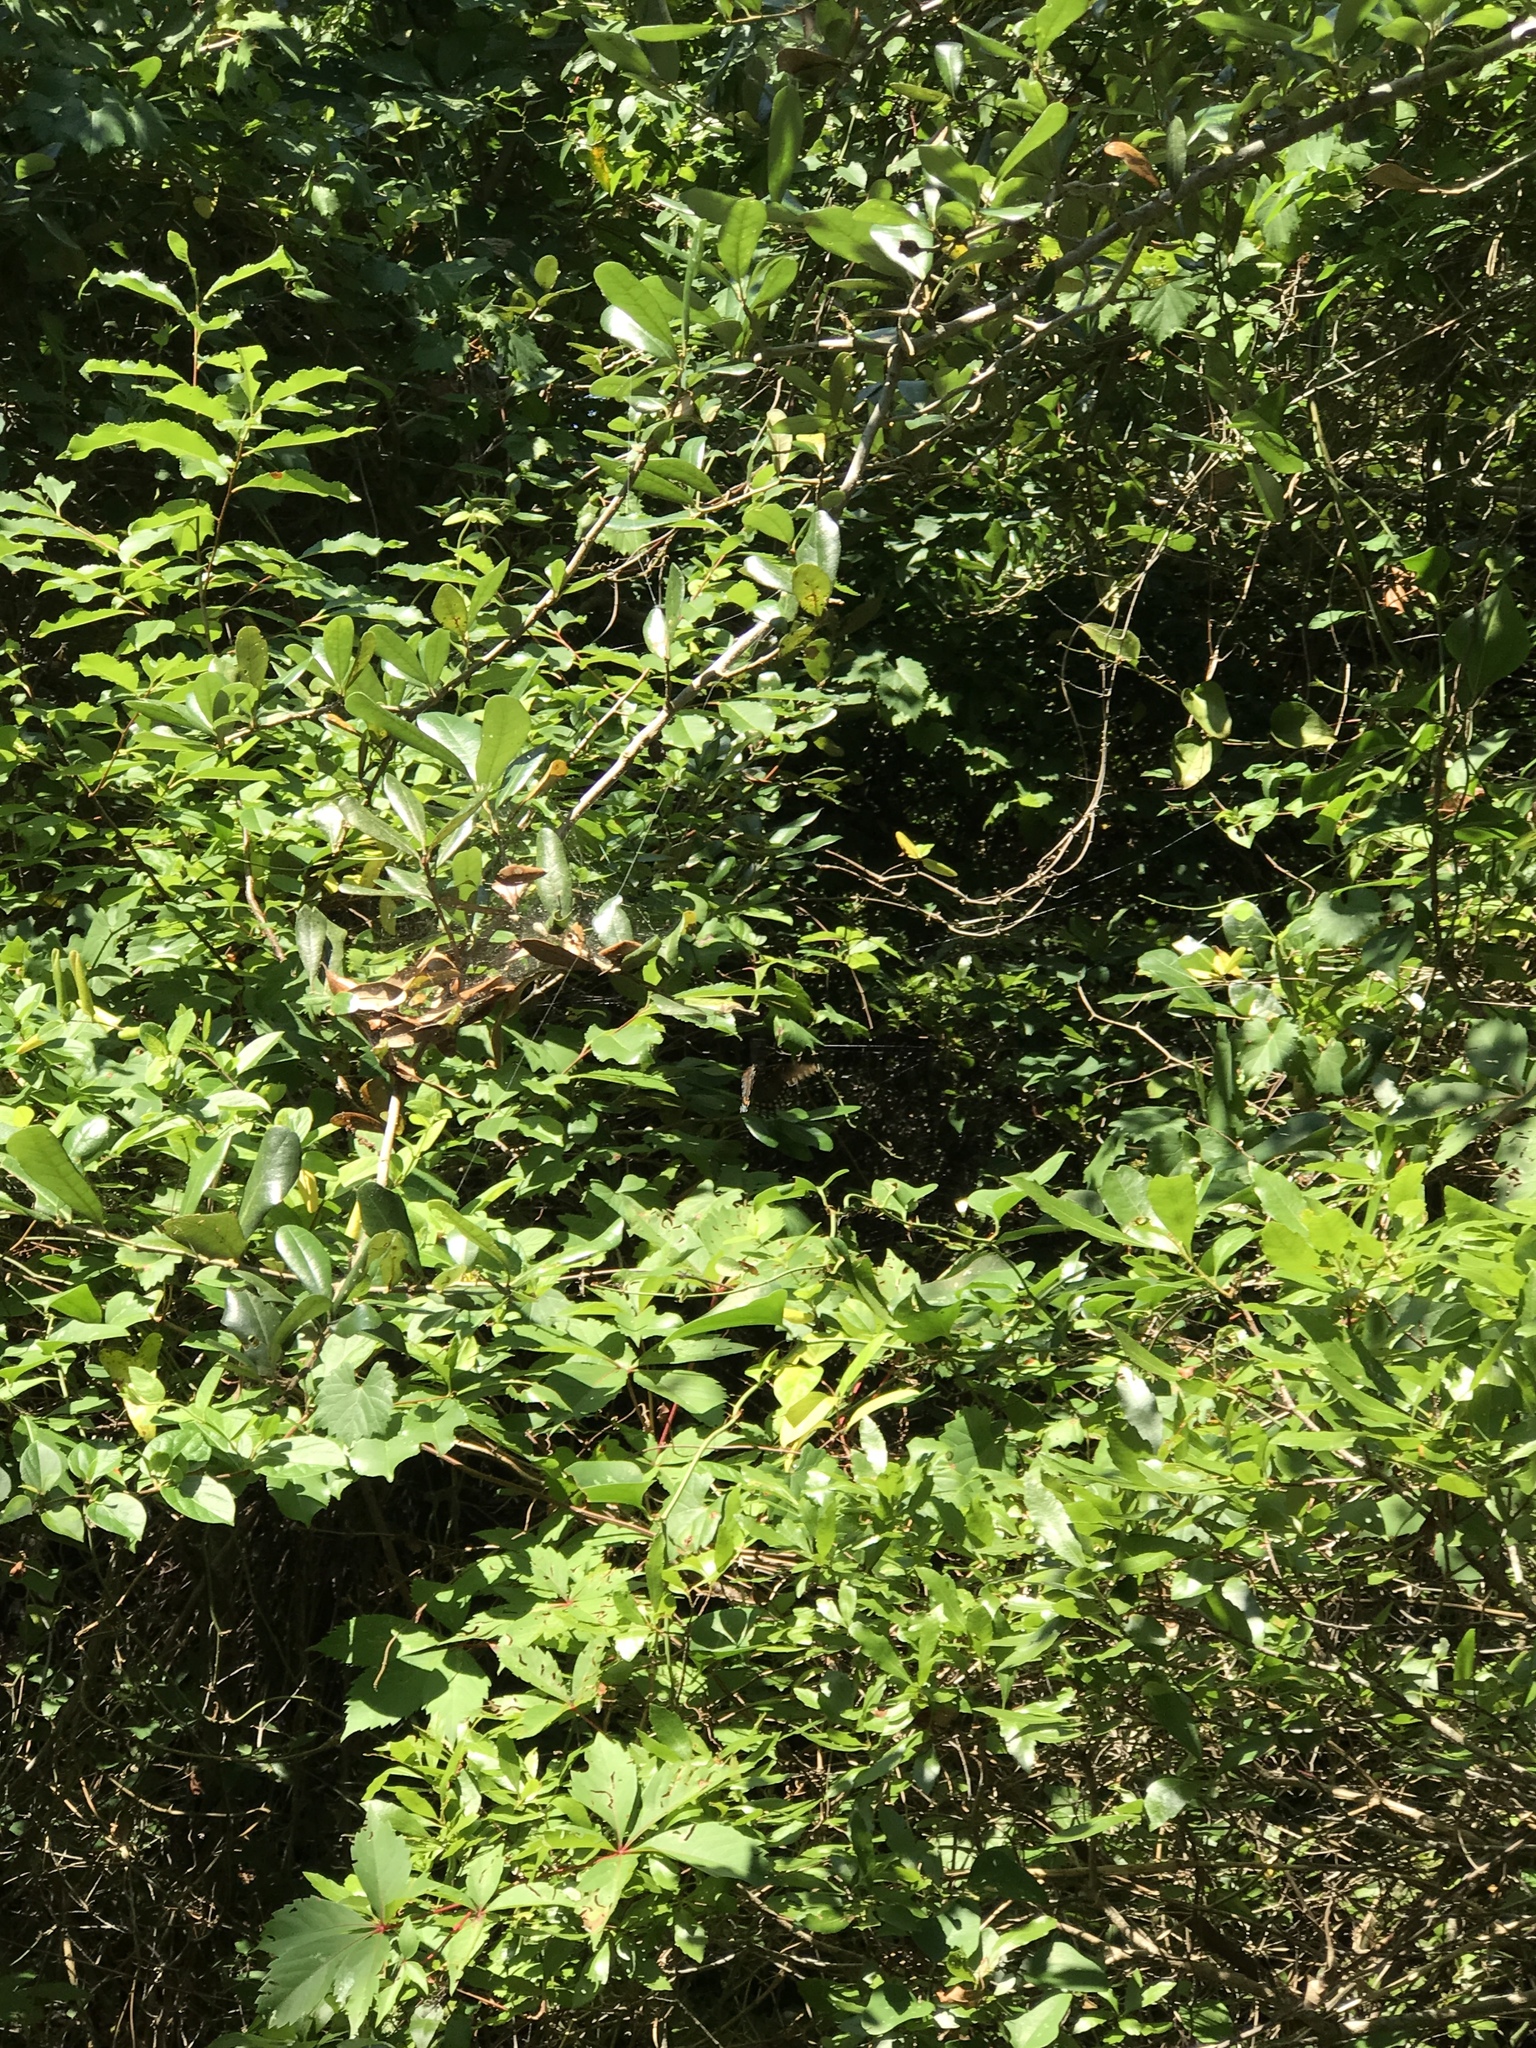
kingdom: Animalia
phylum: Arthropoda
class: Insecta
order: Lepidoptera
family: Nymphalidae
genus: Limenitis
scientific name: Limenitis astyanax
